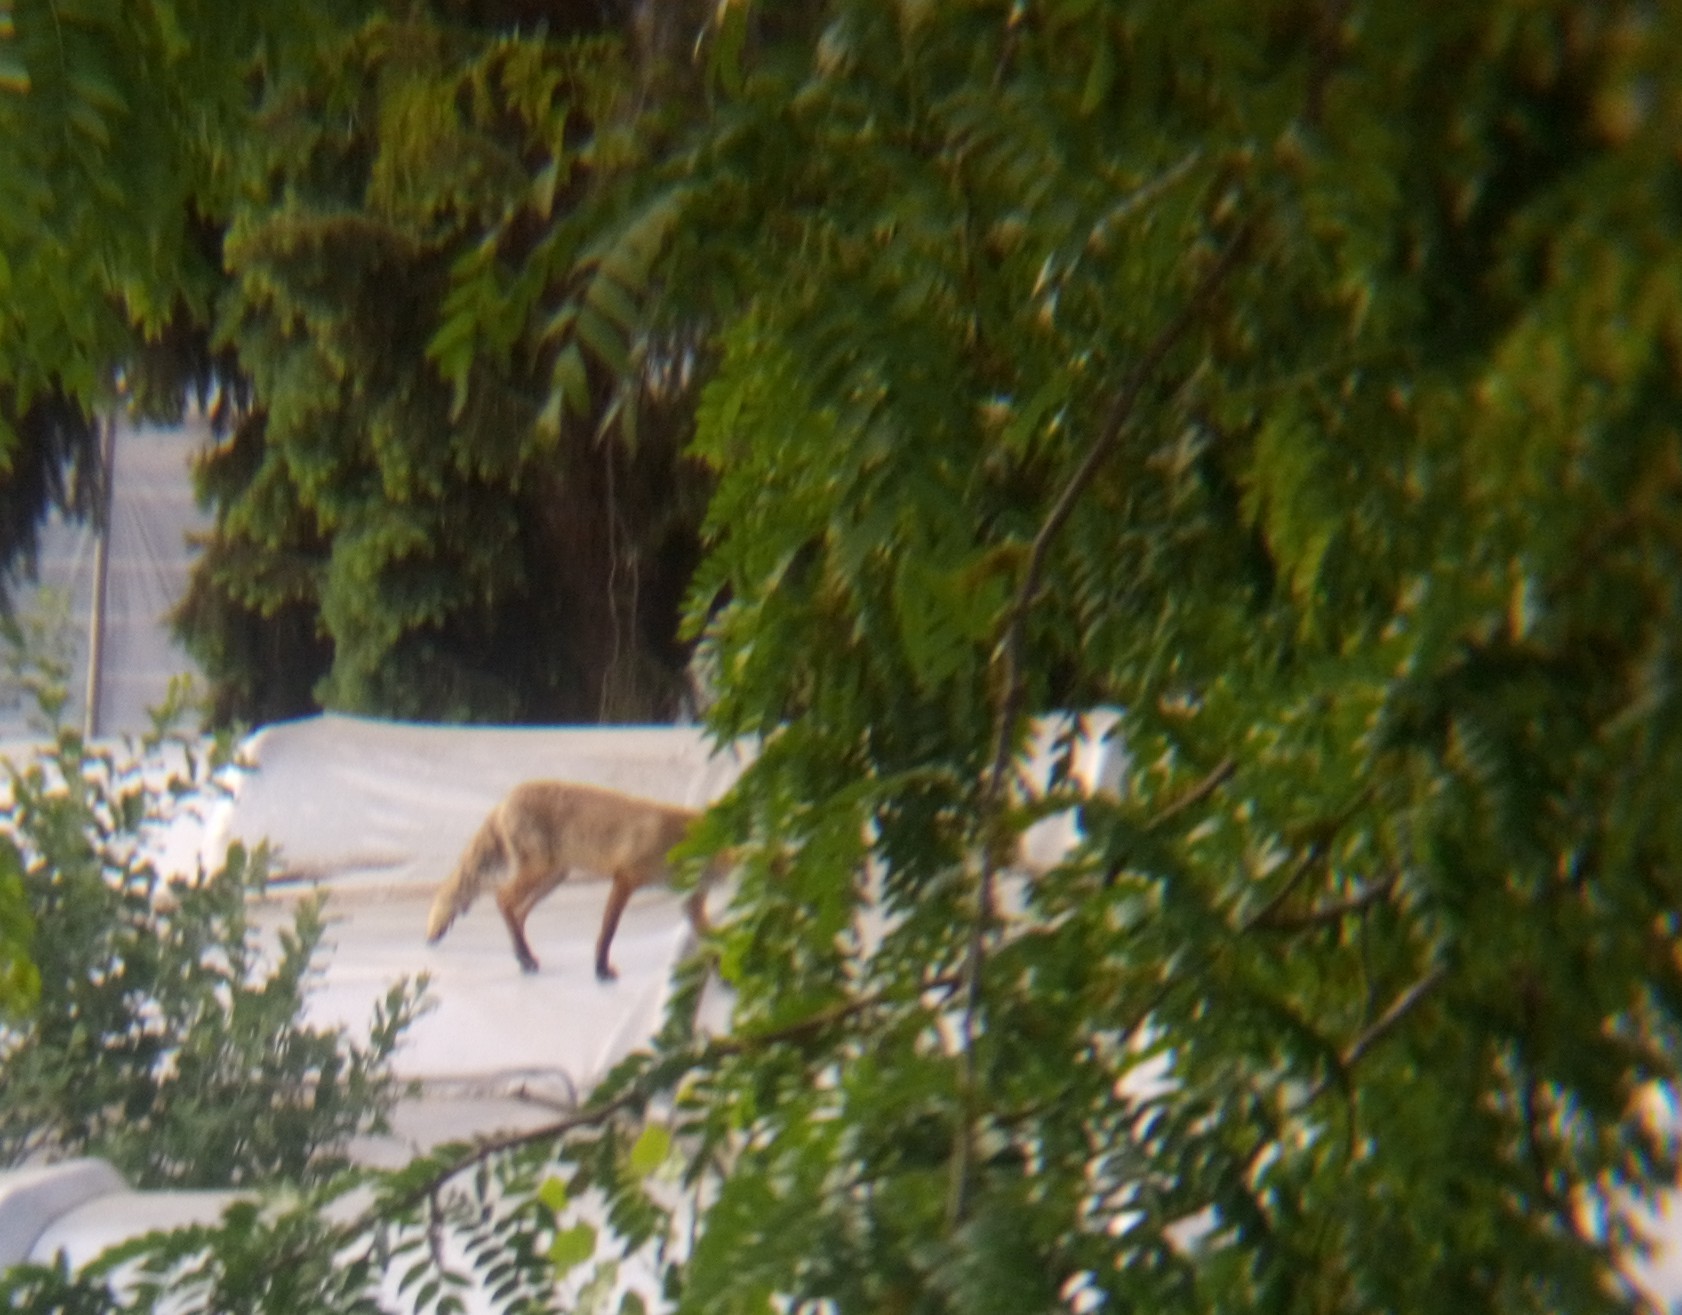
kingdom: Animalia
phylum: Chordata
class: Mammalia
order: Carnivora
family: Canidae
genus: Vulpes
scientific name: Vulpes vulpes
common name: Red fox
